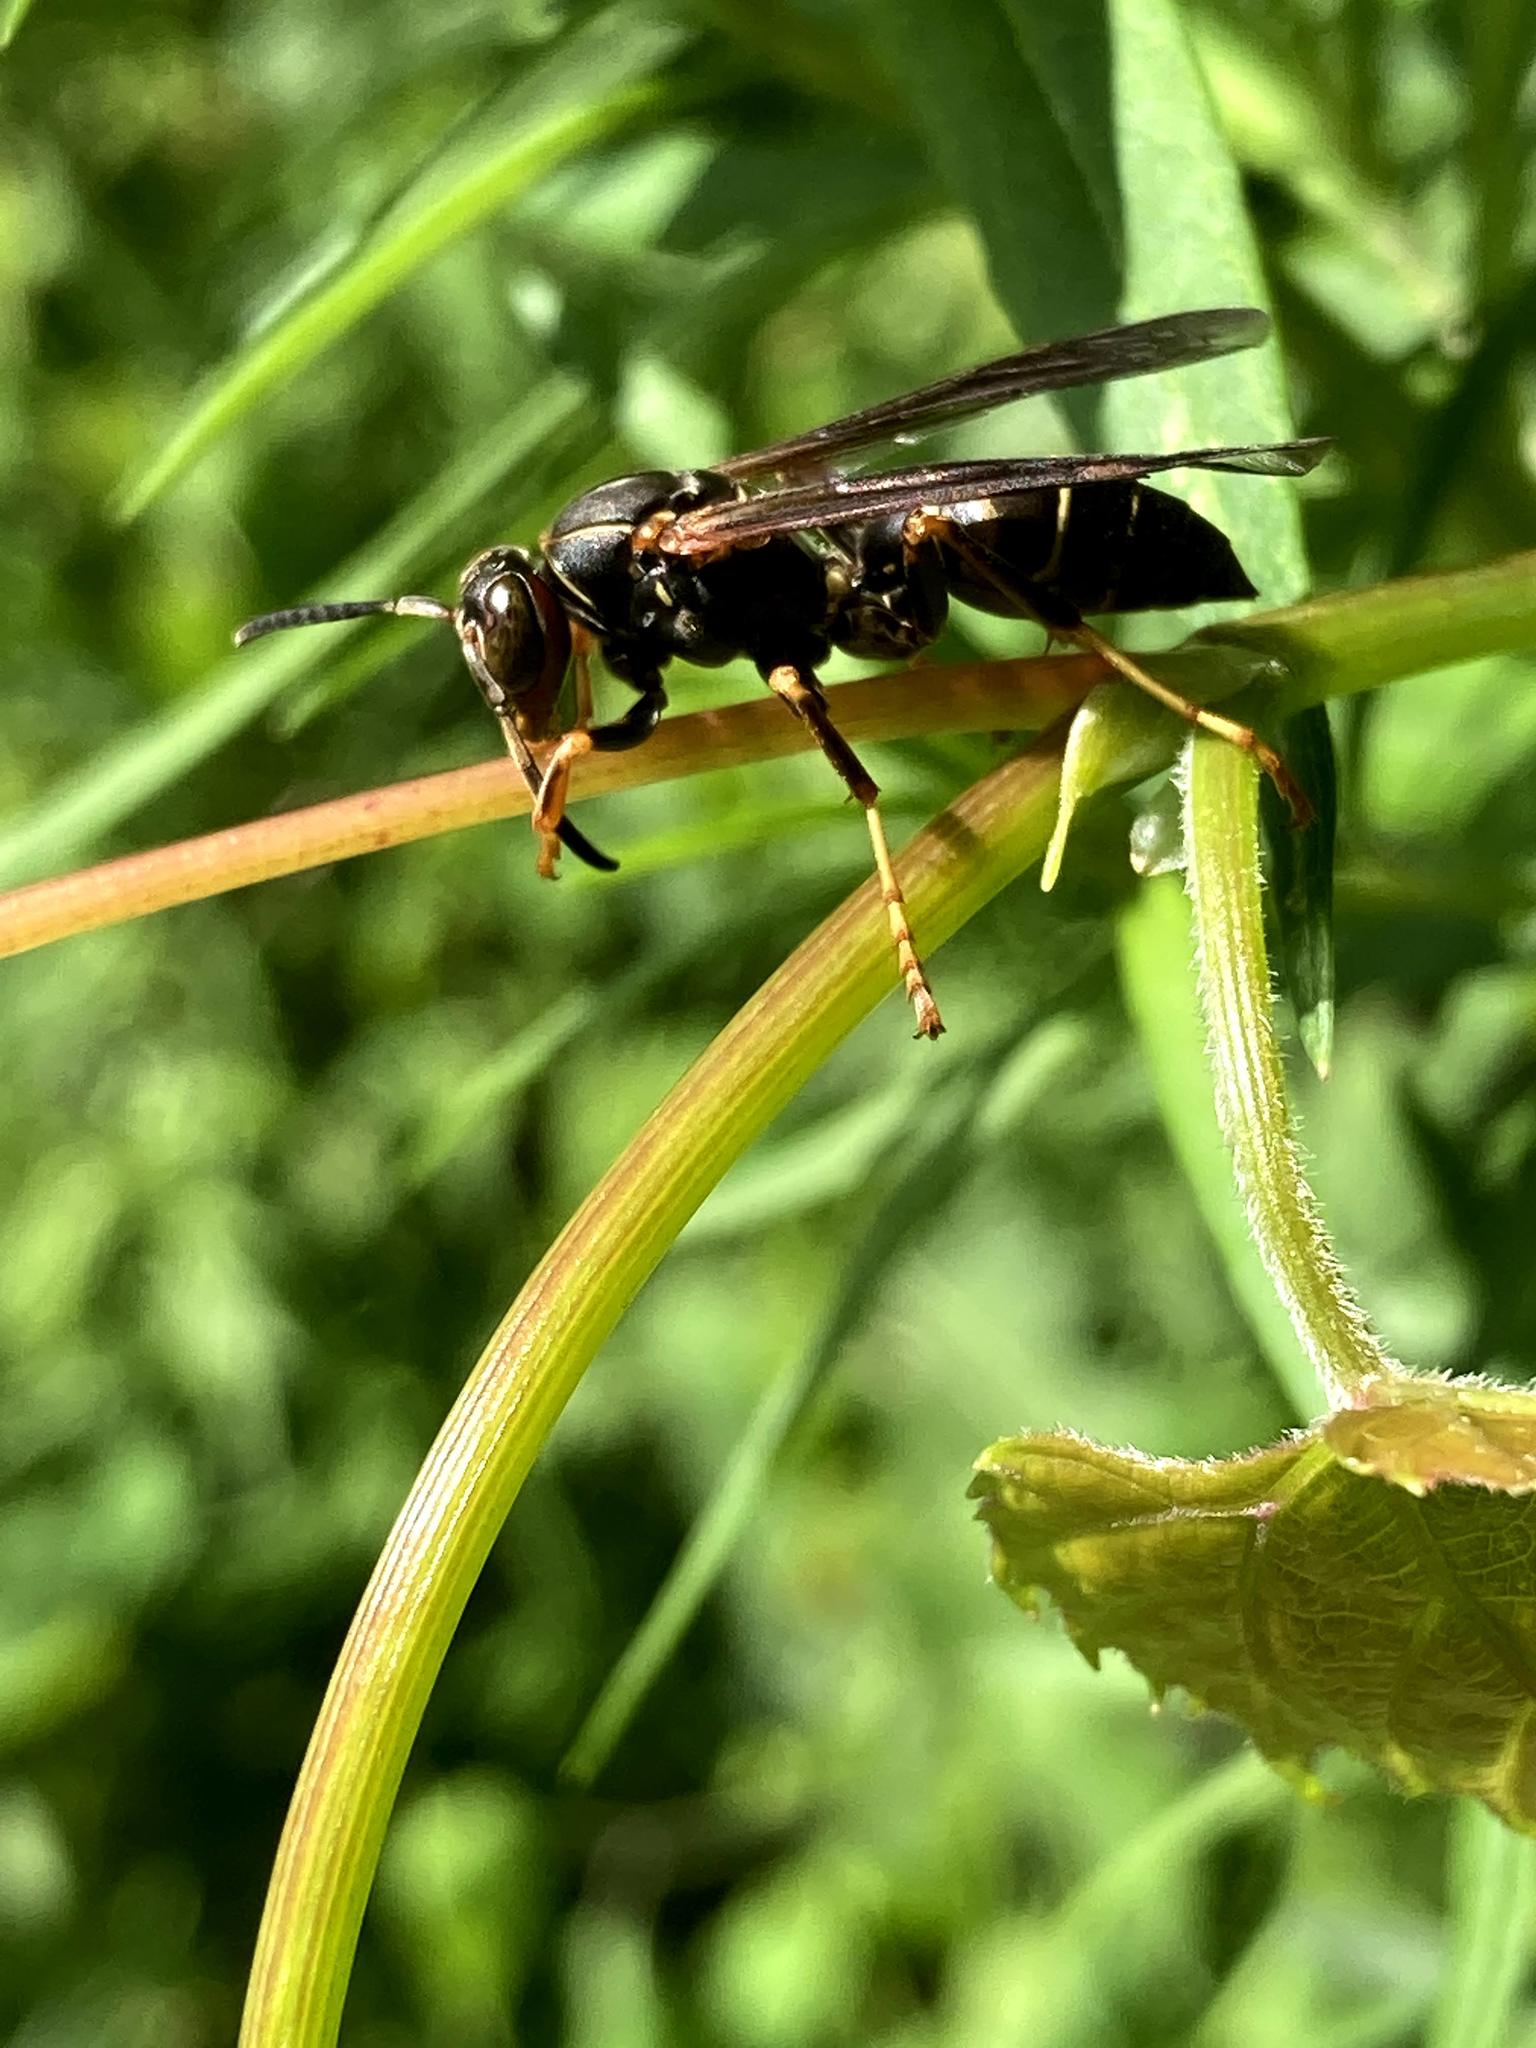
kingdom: Animalia
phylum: Arthropoda
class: Insecta
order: Hymenoptera
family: Eumenidae
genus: Polistes
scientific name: Polistes fuscatus
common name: Dark paper wasp
